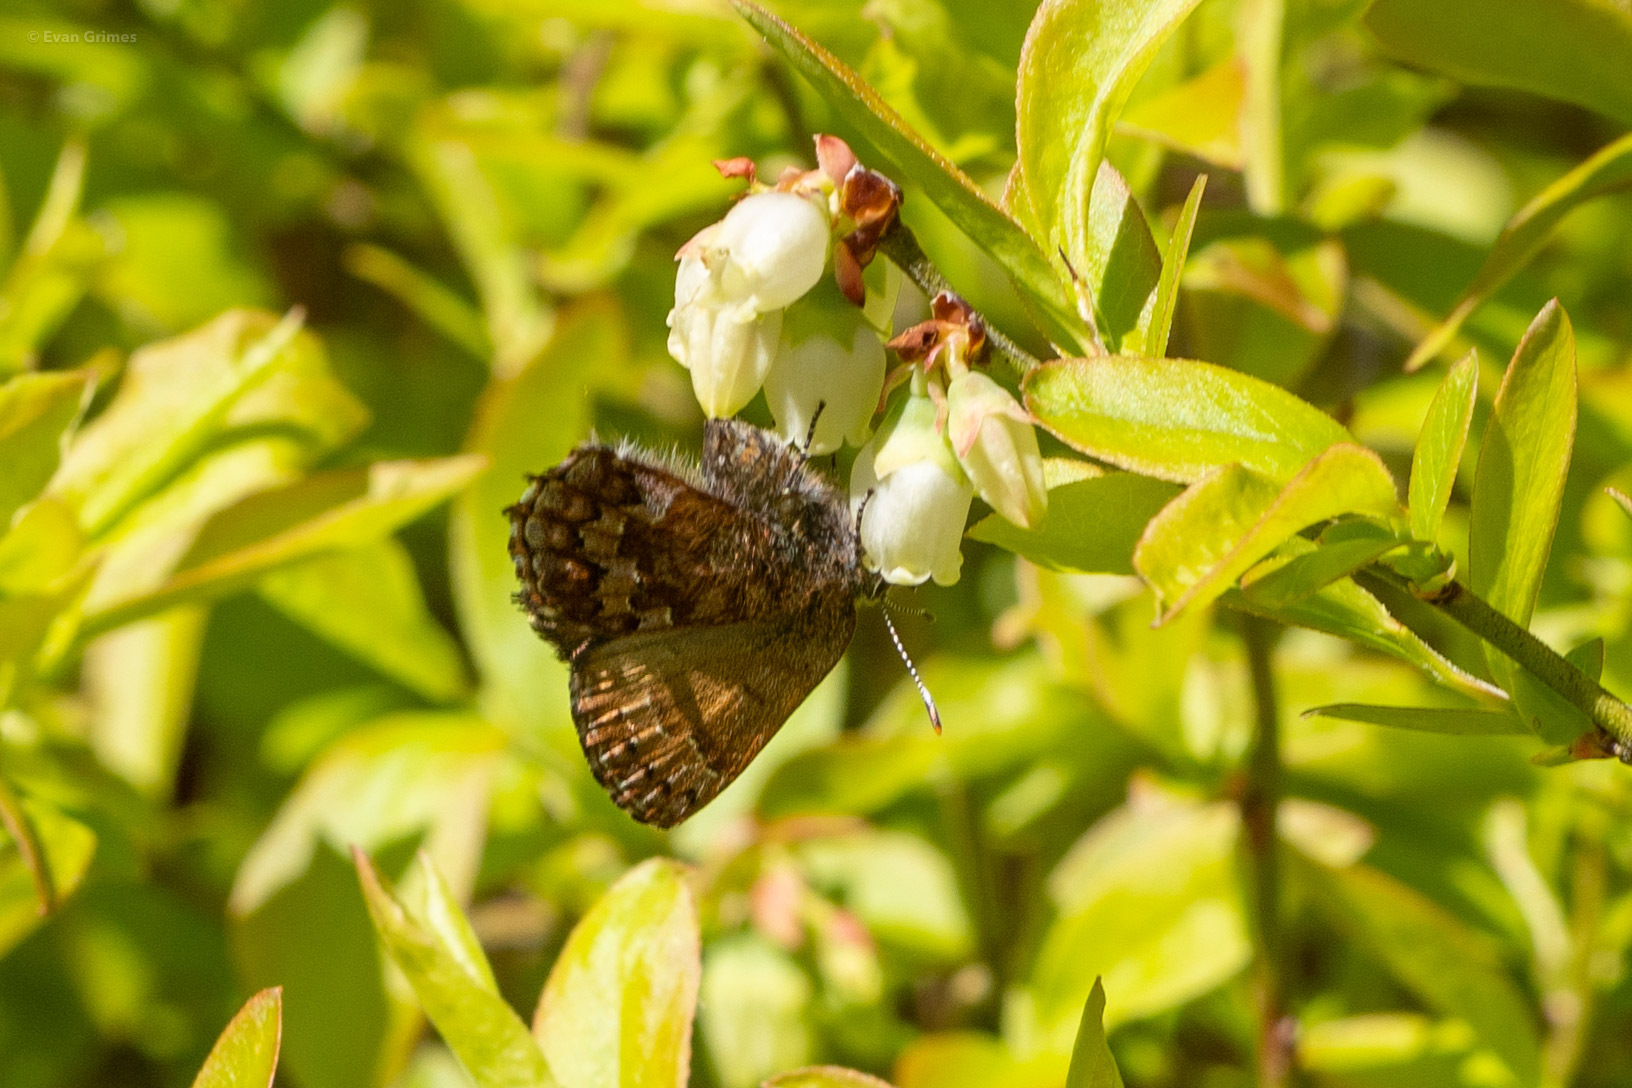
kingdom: Animalia
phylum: Arthropoda
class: Insecta
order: Lepidoptera
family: Lycaenidae
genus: Incisalia
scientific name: Incisalia niphon
